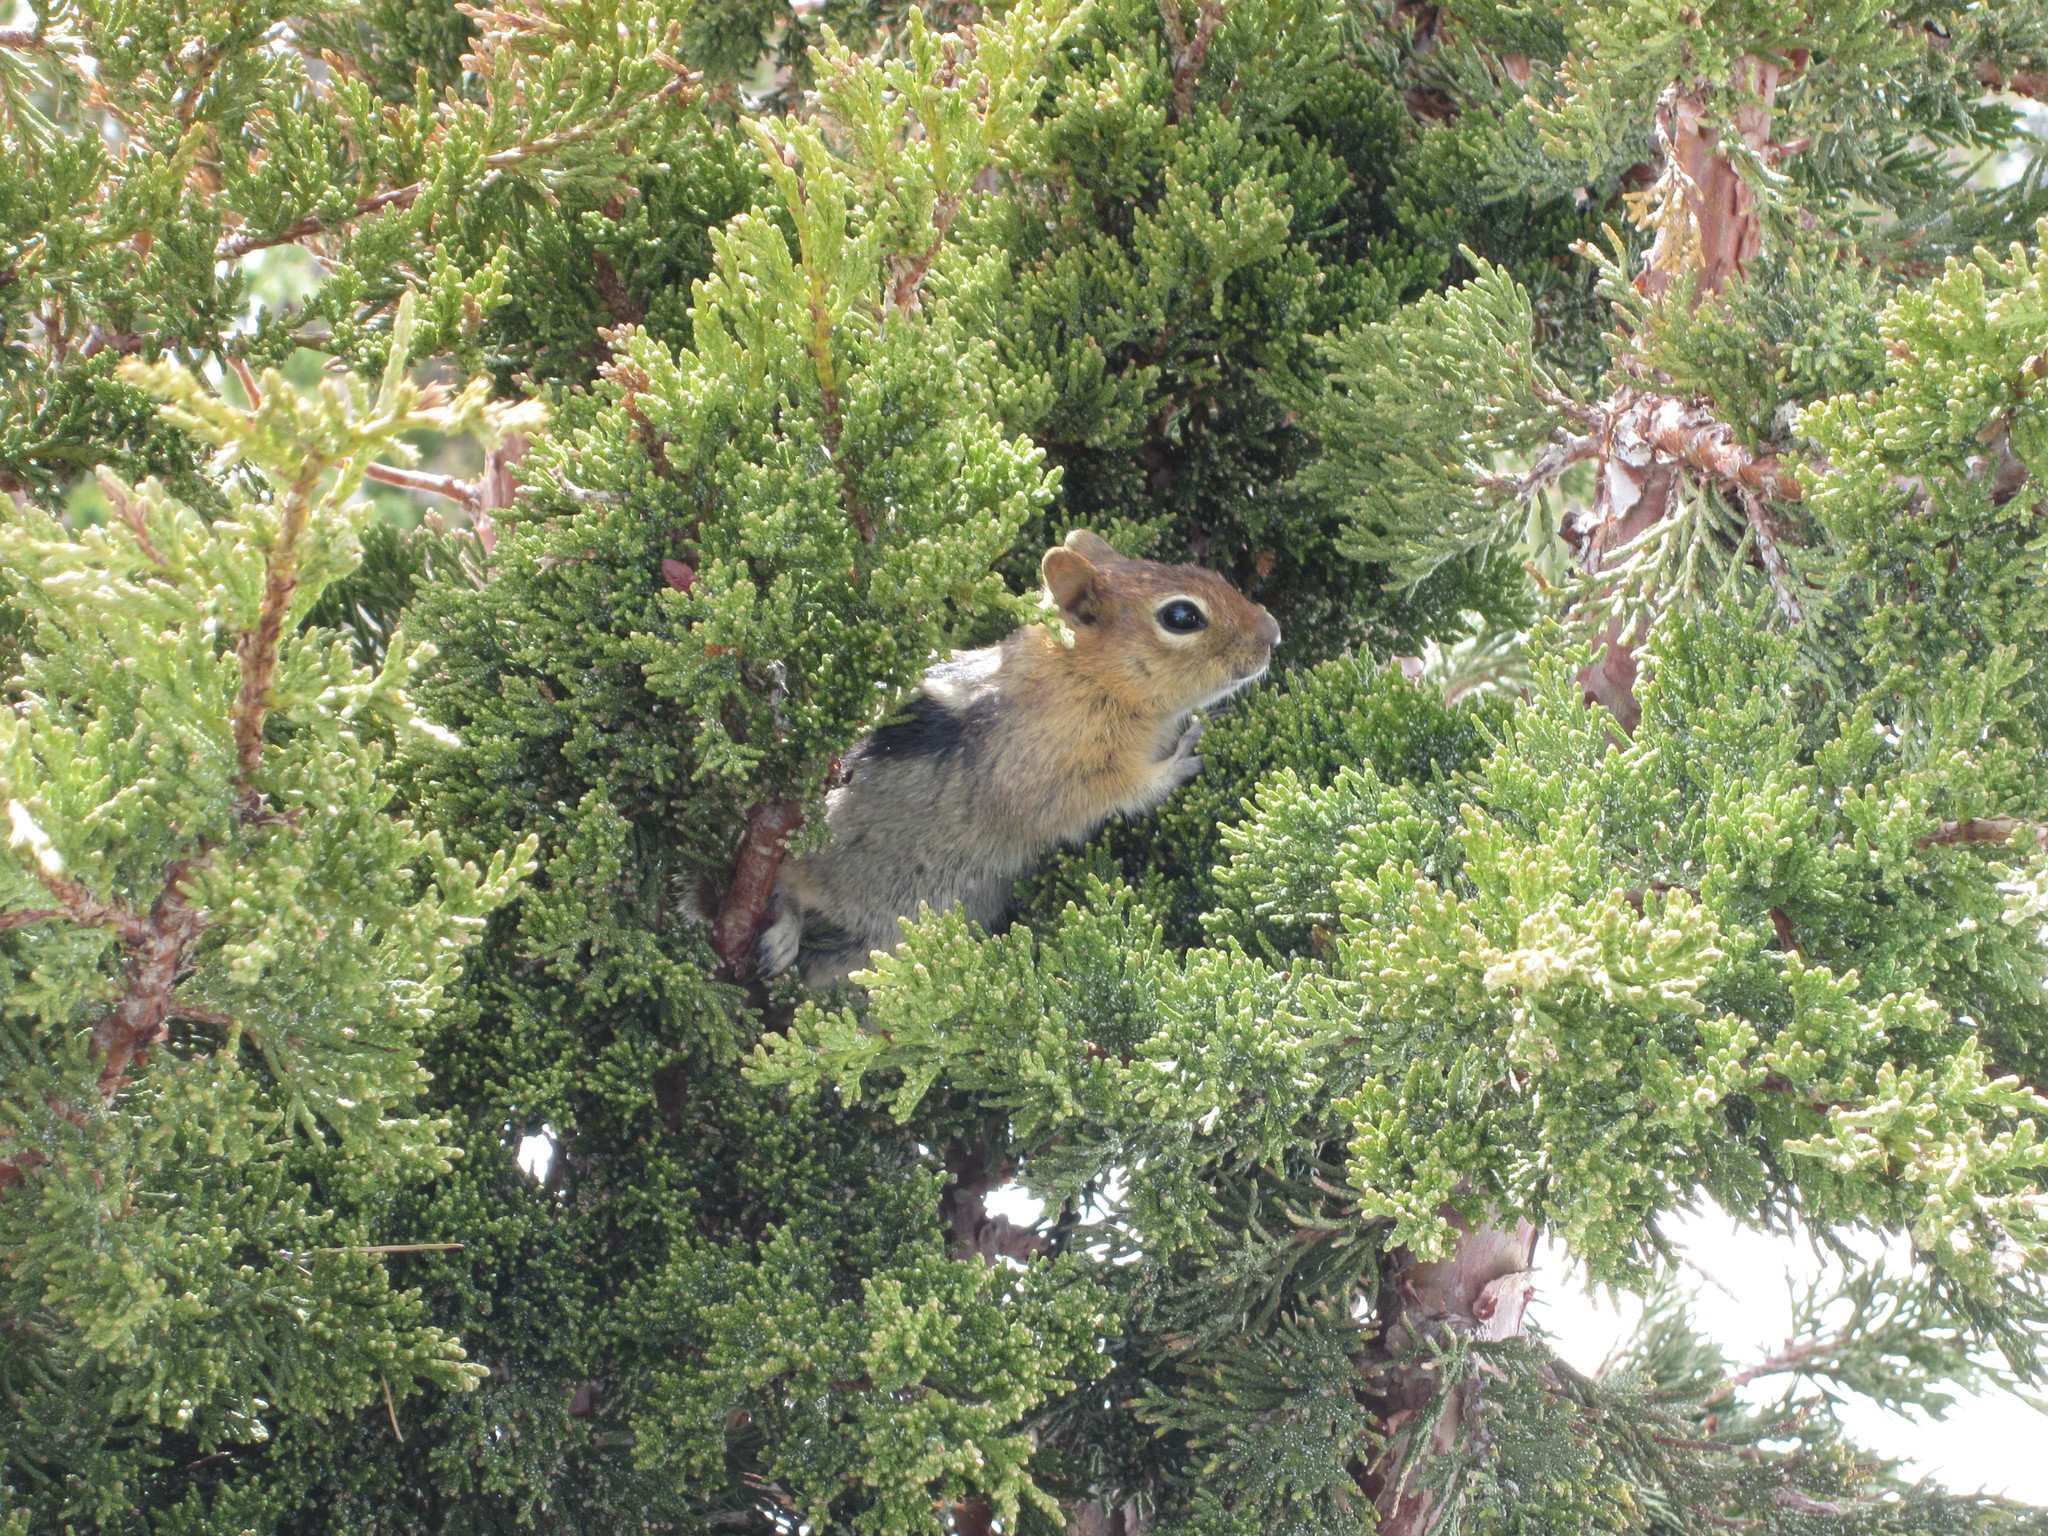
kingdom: Animalia
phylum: Chordata
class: Mammalia
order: Rodentia
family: Sciuridae
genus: Callospermophilus
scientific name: Callospermophilus lateralis
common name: Golden-mantled ground squirrel
